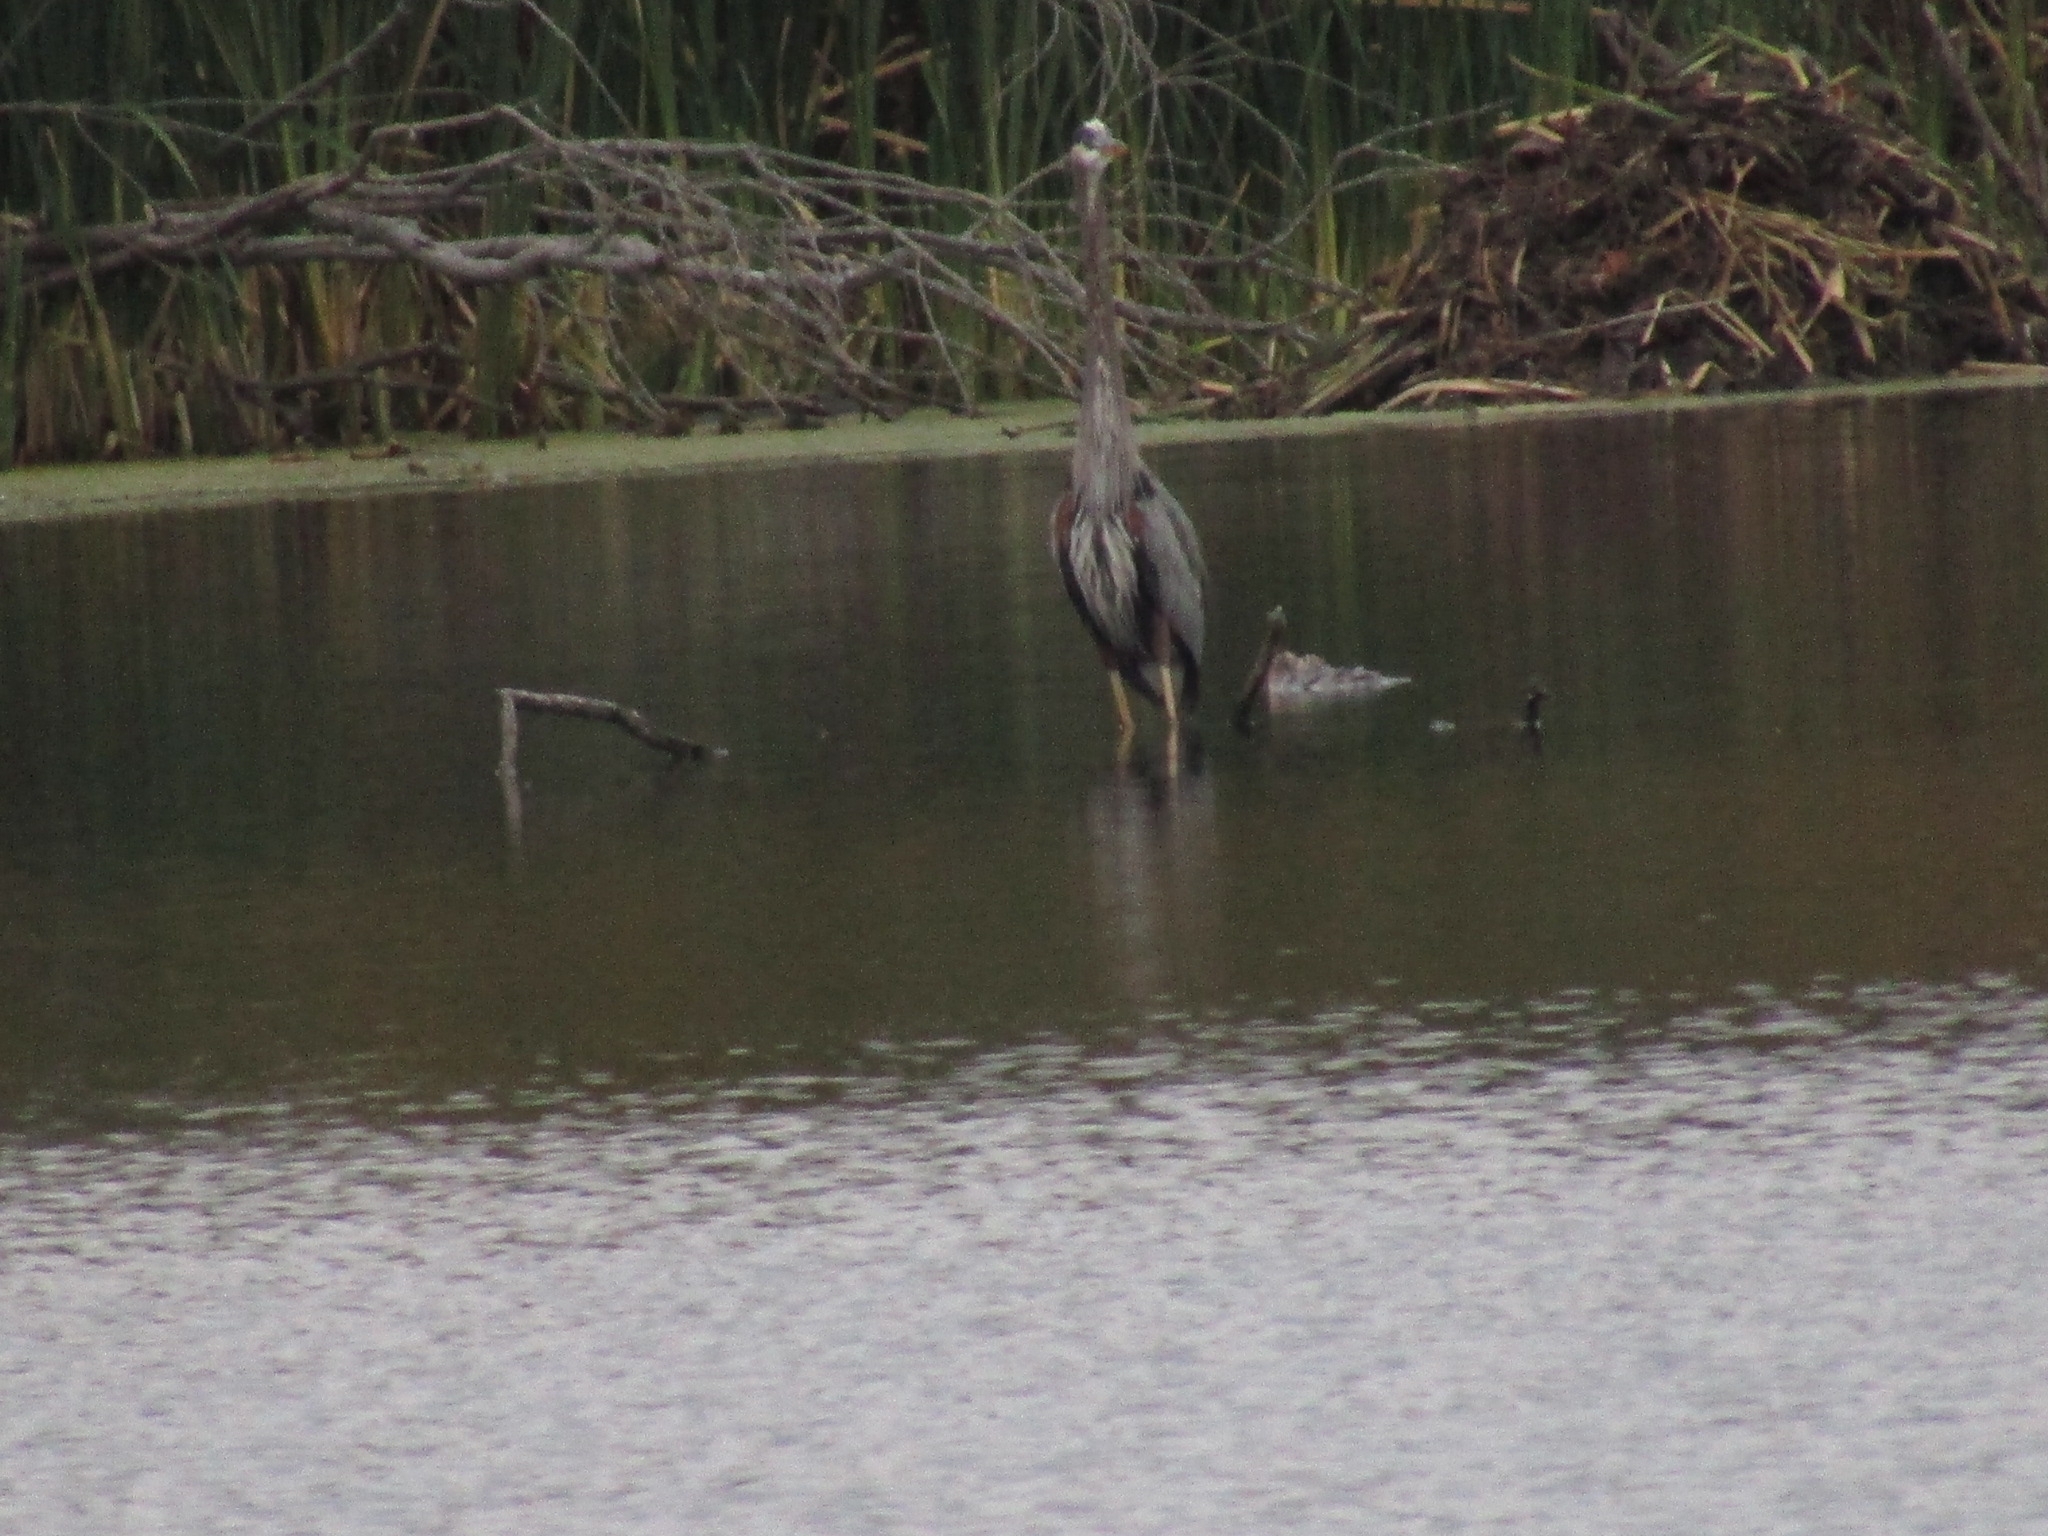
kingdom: Animalia
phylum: Chordata
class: Aves
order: Pelecaniformes
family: Ardeidae
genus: Ardea
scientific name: Ardea herodias
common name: Great blue heron
